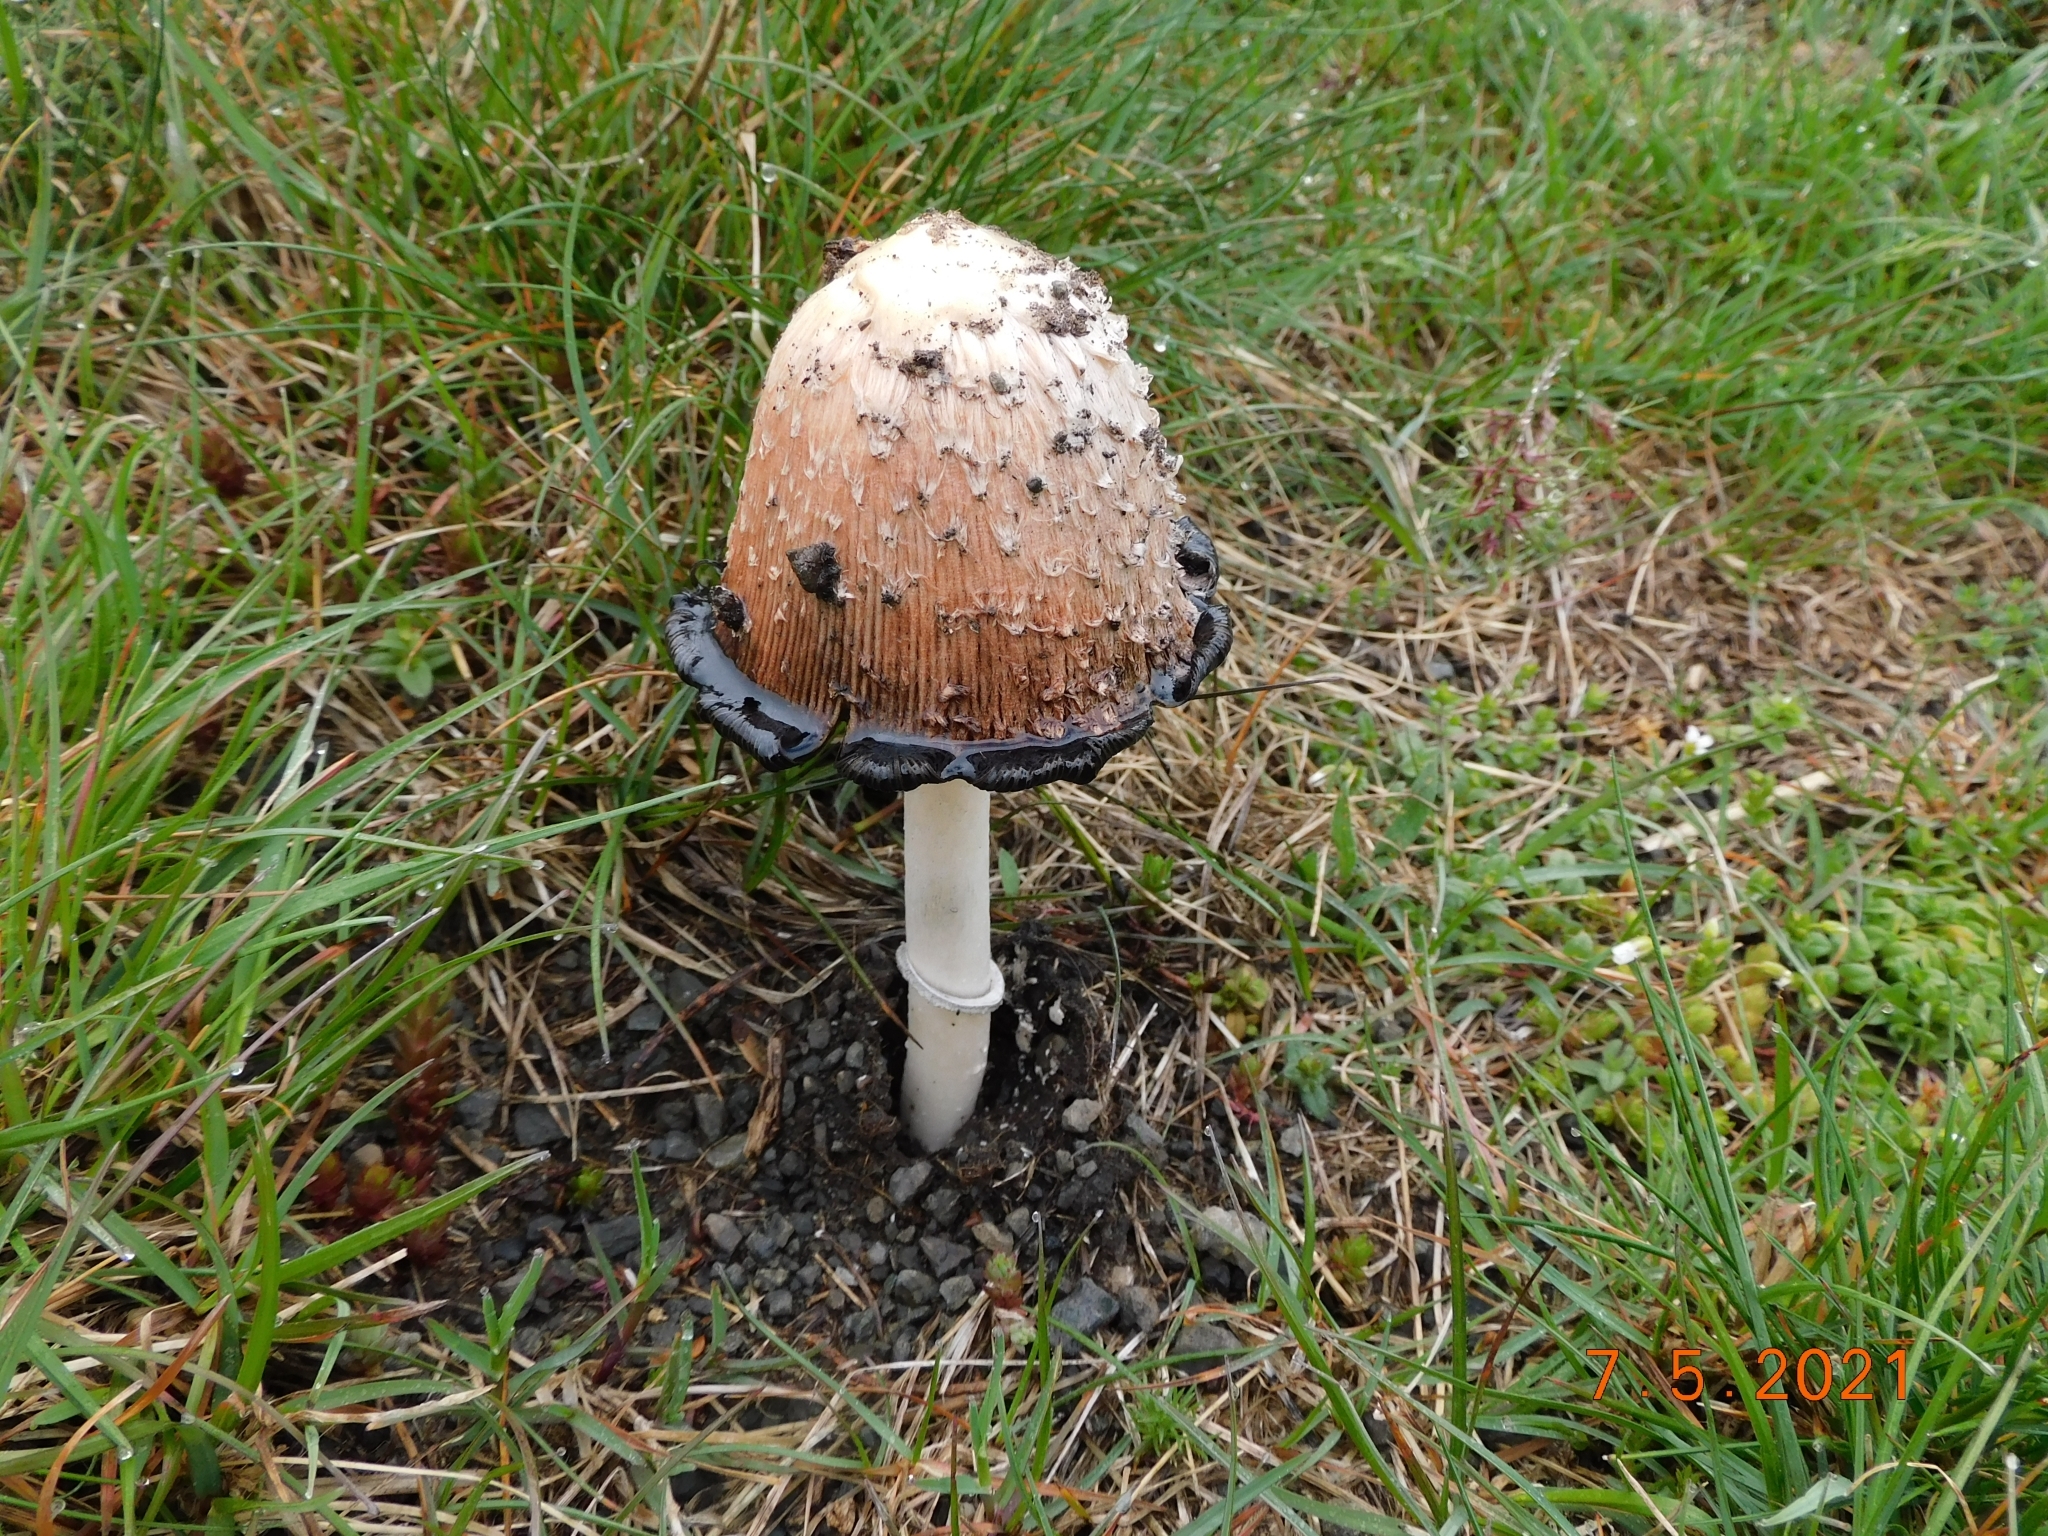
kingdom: Fungi
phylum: Basidiomycota
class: Agaricomycetes
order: Agaricales
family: Agaricaceae
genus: Coprinus
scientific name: Coprinus comatus
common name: Lawyer's wig
